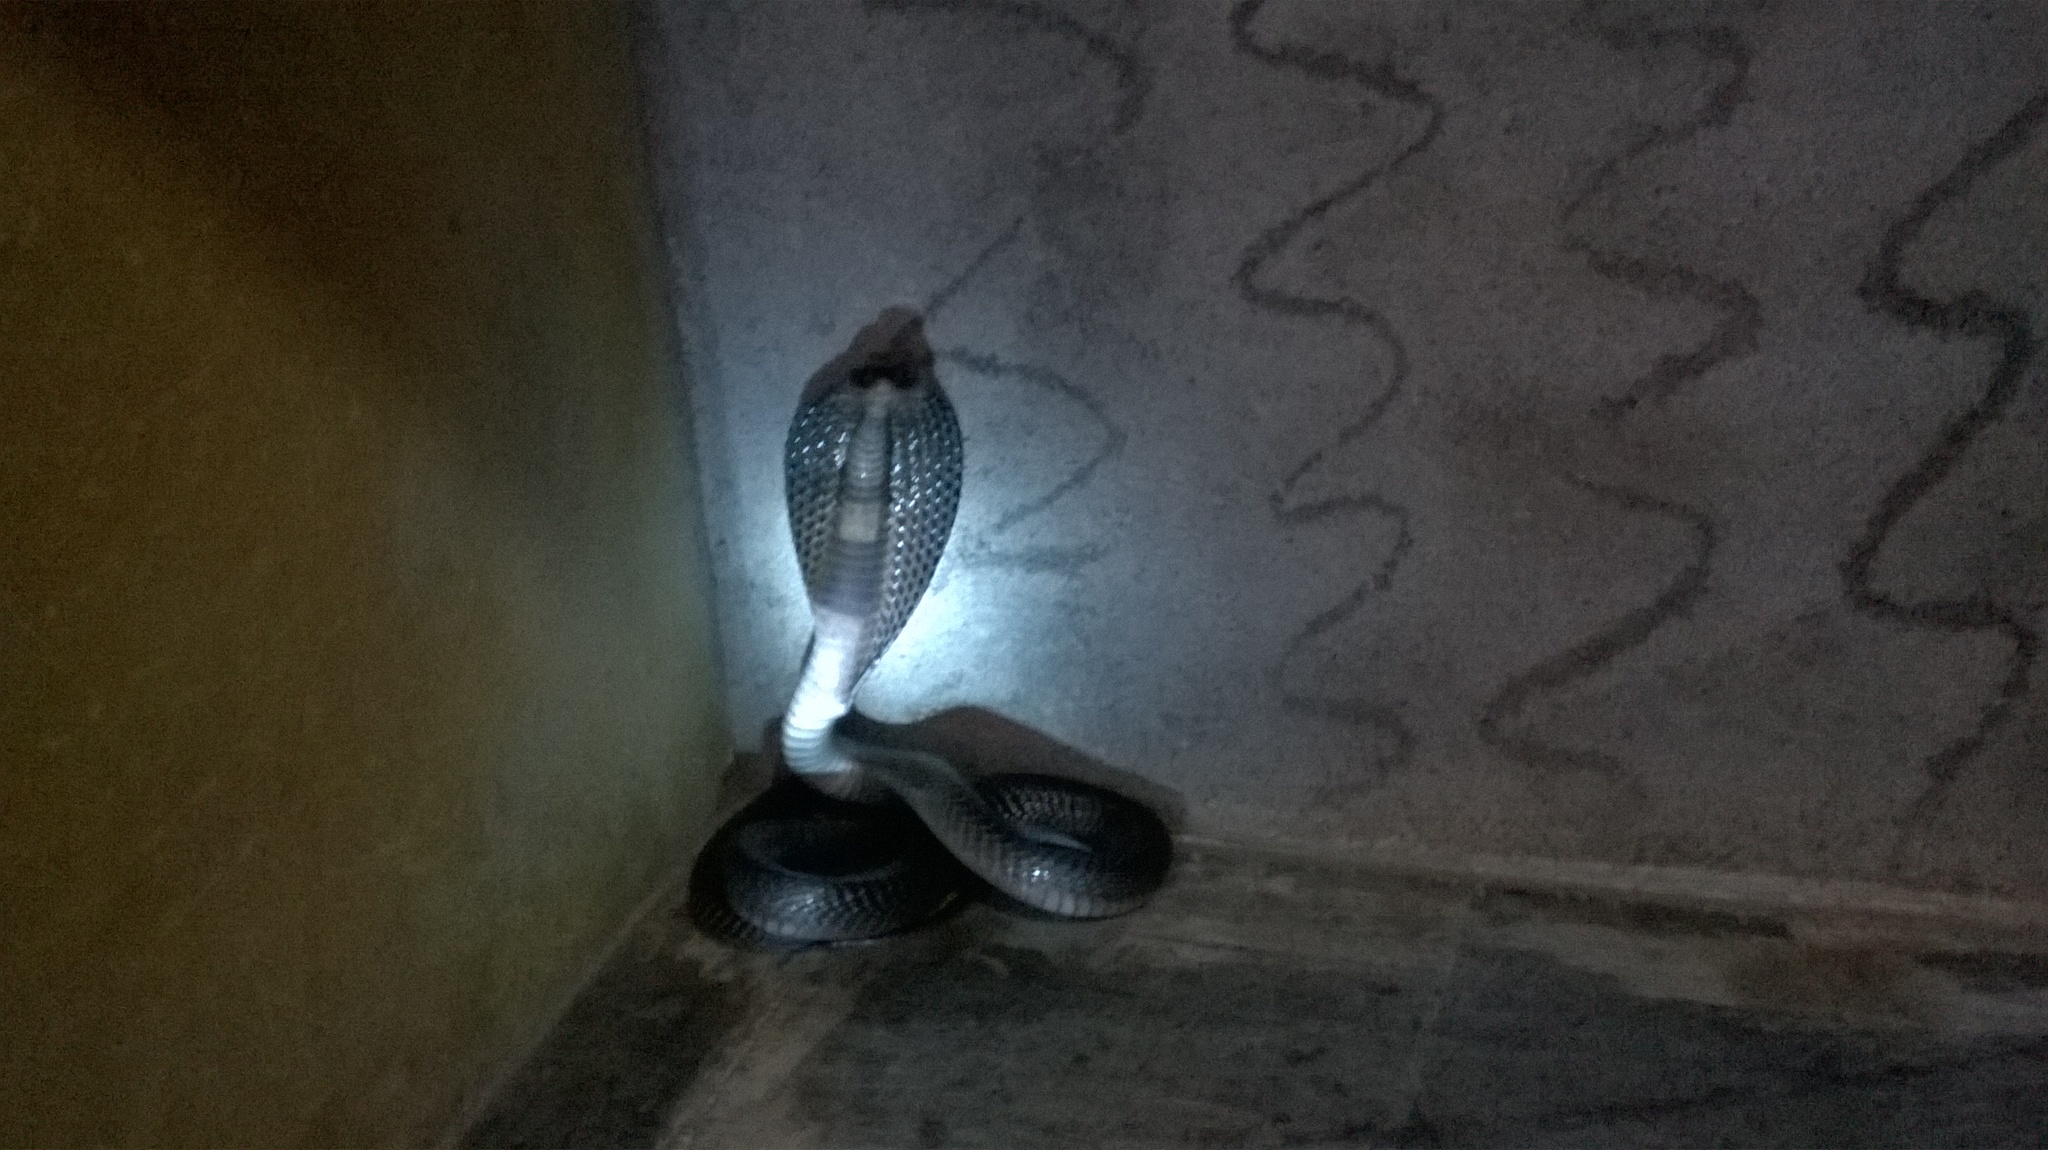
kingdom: Animalia
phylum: Chordata
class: Squamata
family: Elapidae
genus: Naja
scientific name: Naja naja
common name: Indian cobra
